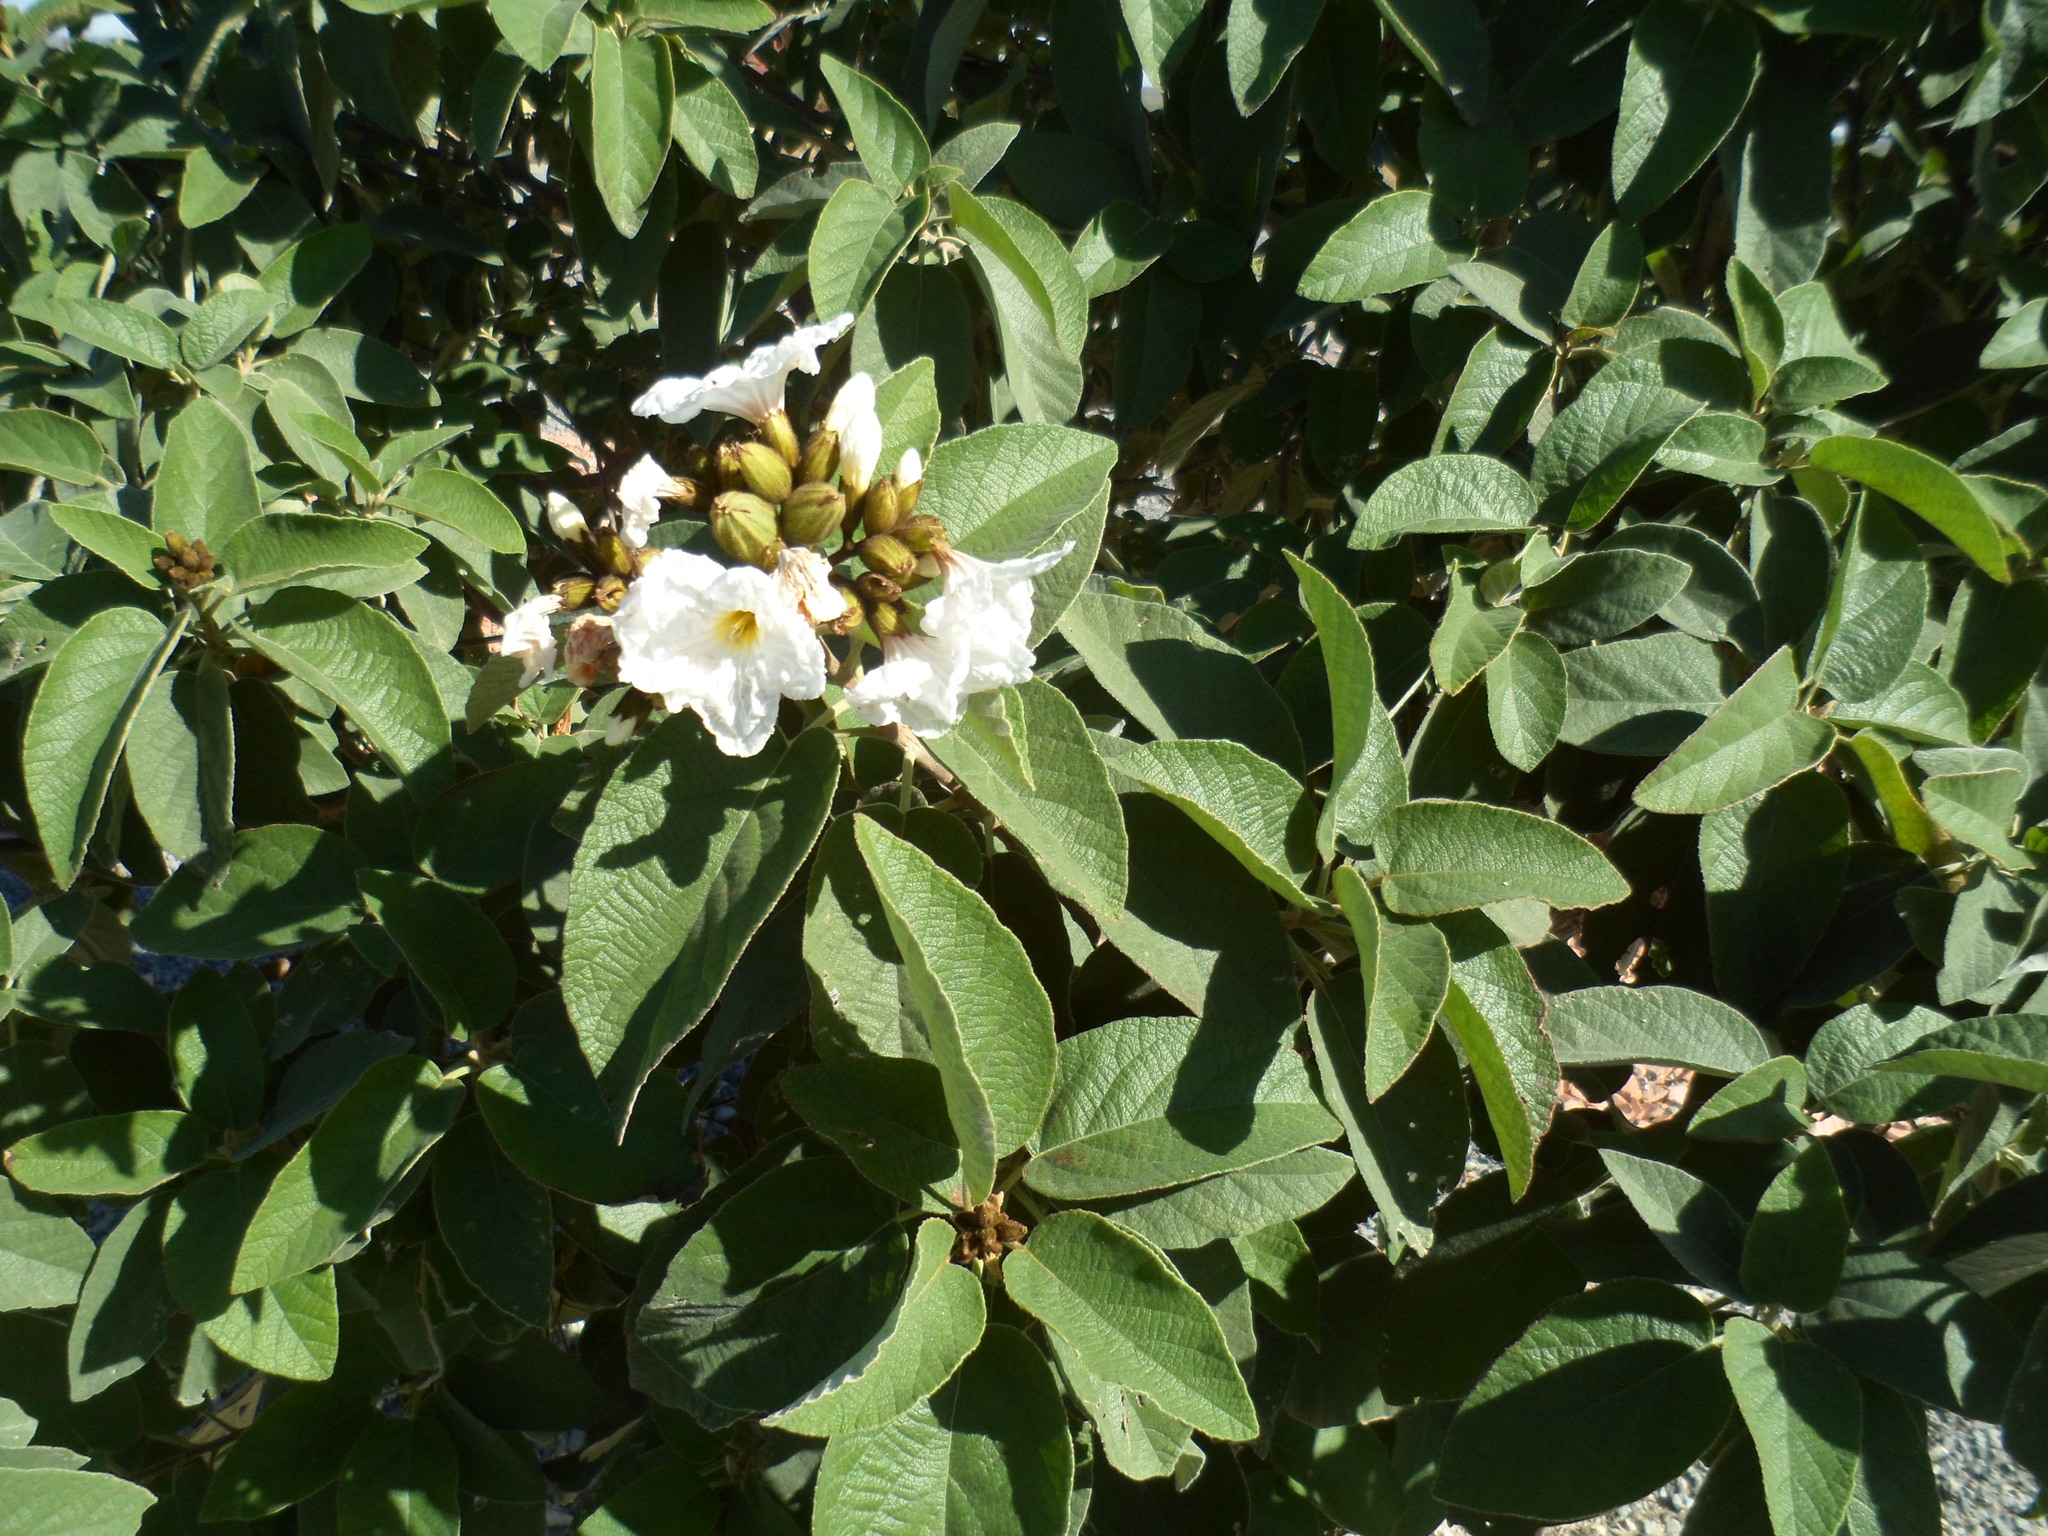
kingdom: Plantae
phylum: Tracheophyta
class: Magnoliopsida
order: Boraginales
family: Cordiaceae
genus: Cordia
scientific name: Cordia boissieri
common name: Mexican-olive
